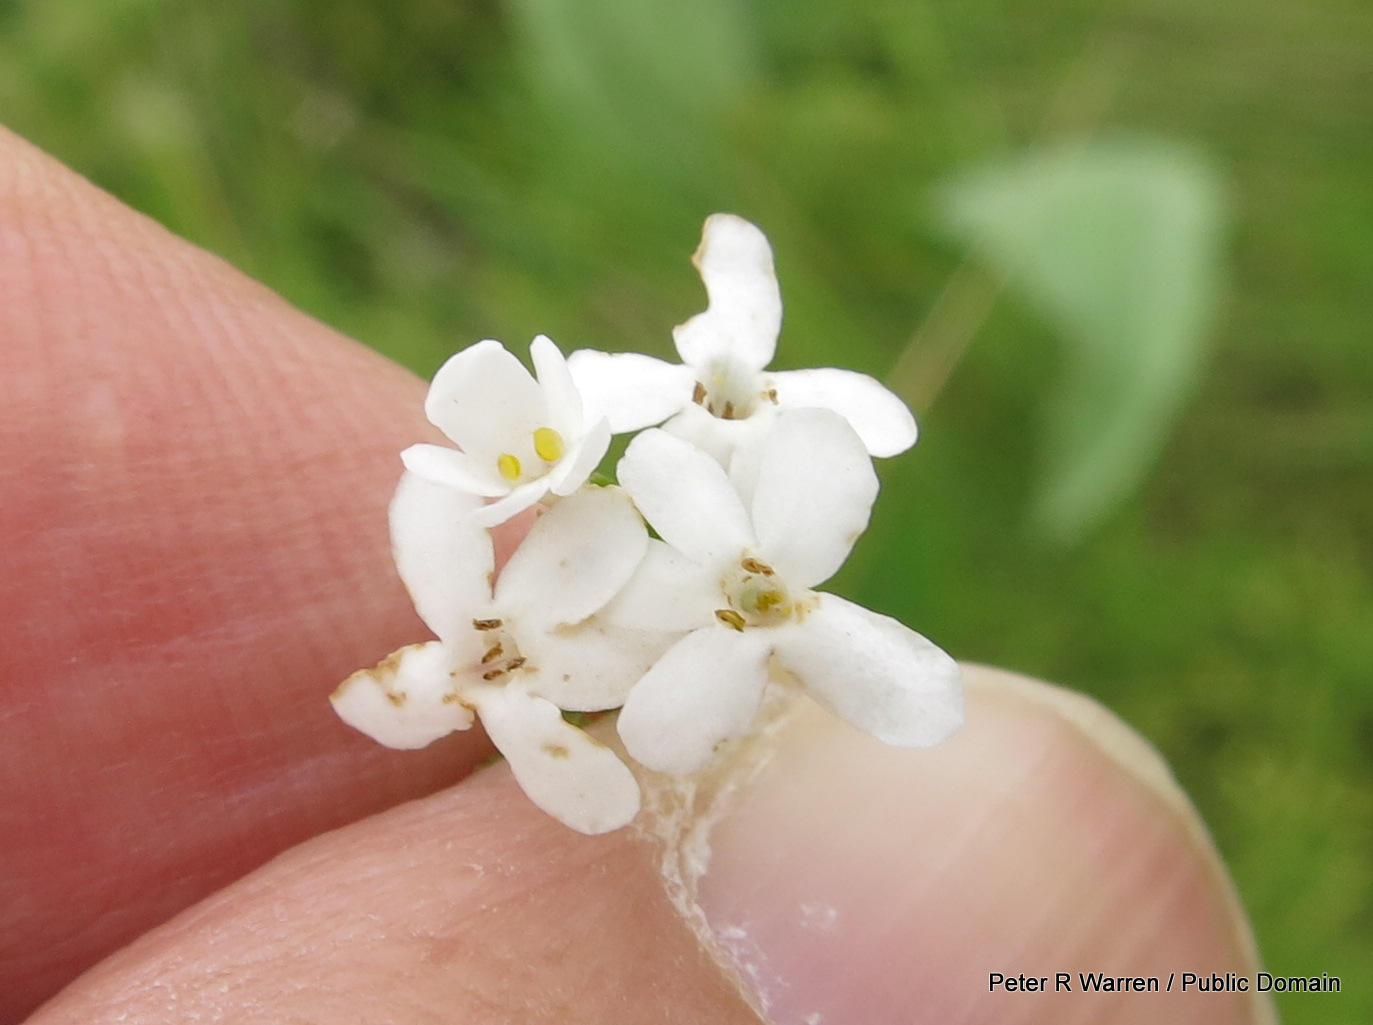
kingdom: Plantae
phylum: Tracheophyta
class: Magnoliopsida
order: Lamiales
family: Scrophulariaceae
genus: Chaenostoma
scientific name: Chaenostoma floribundum
